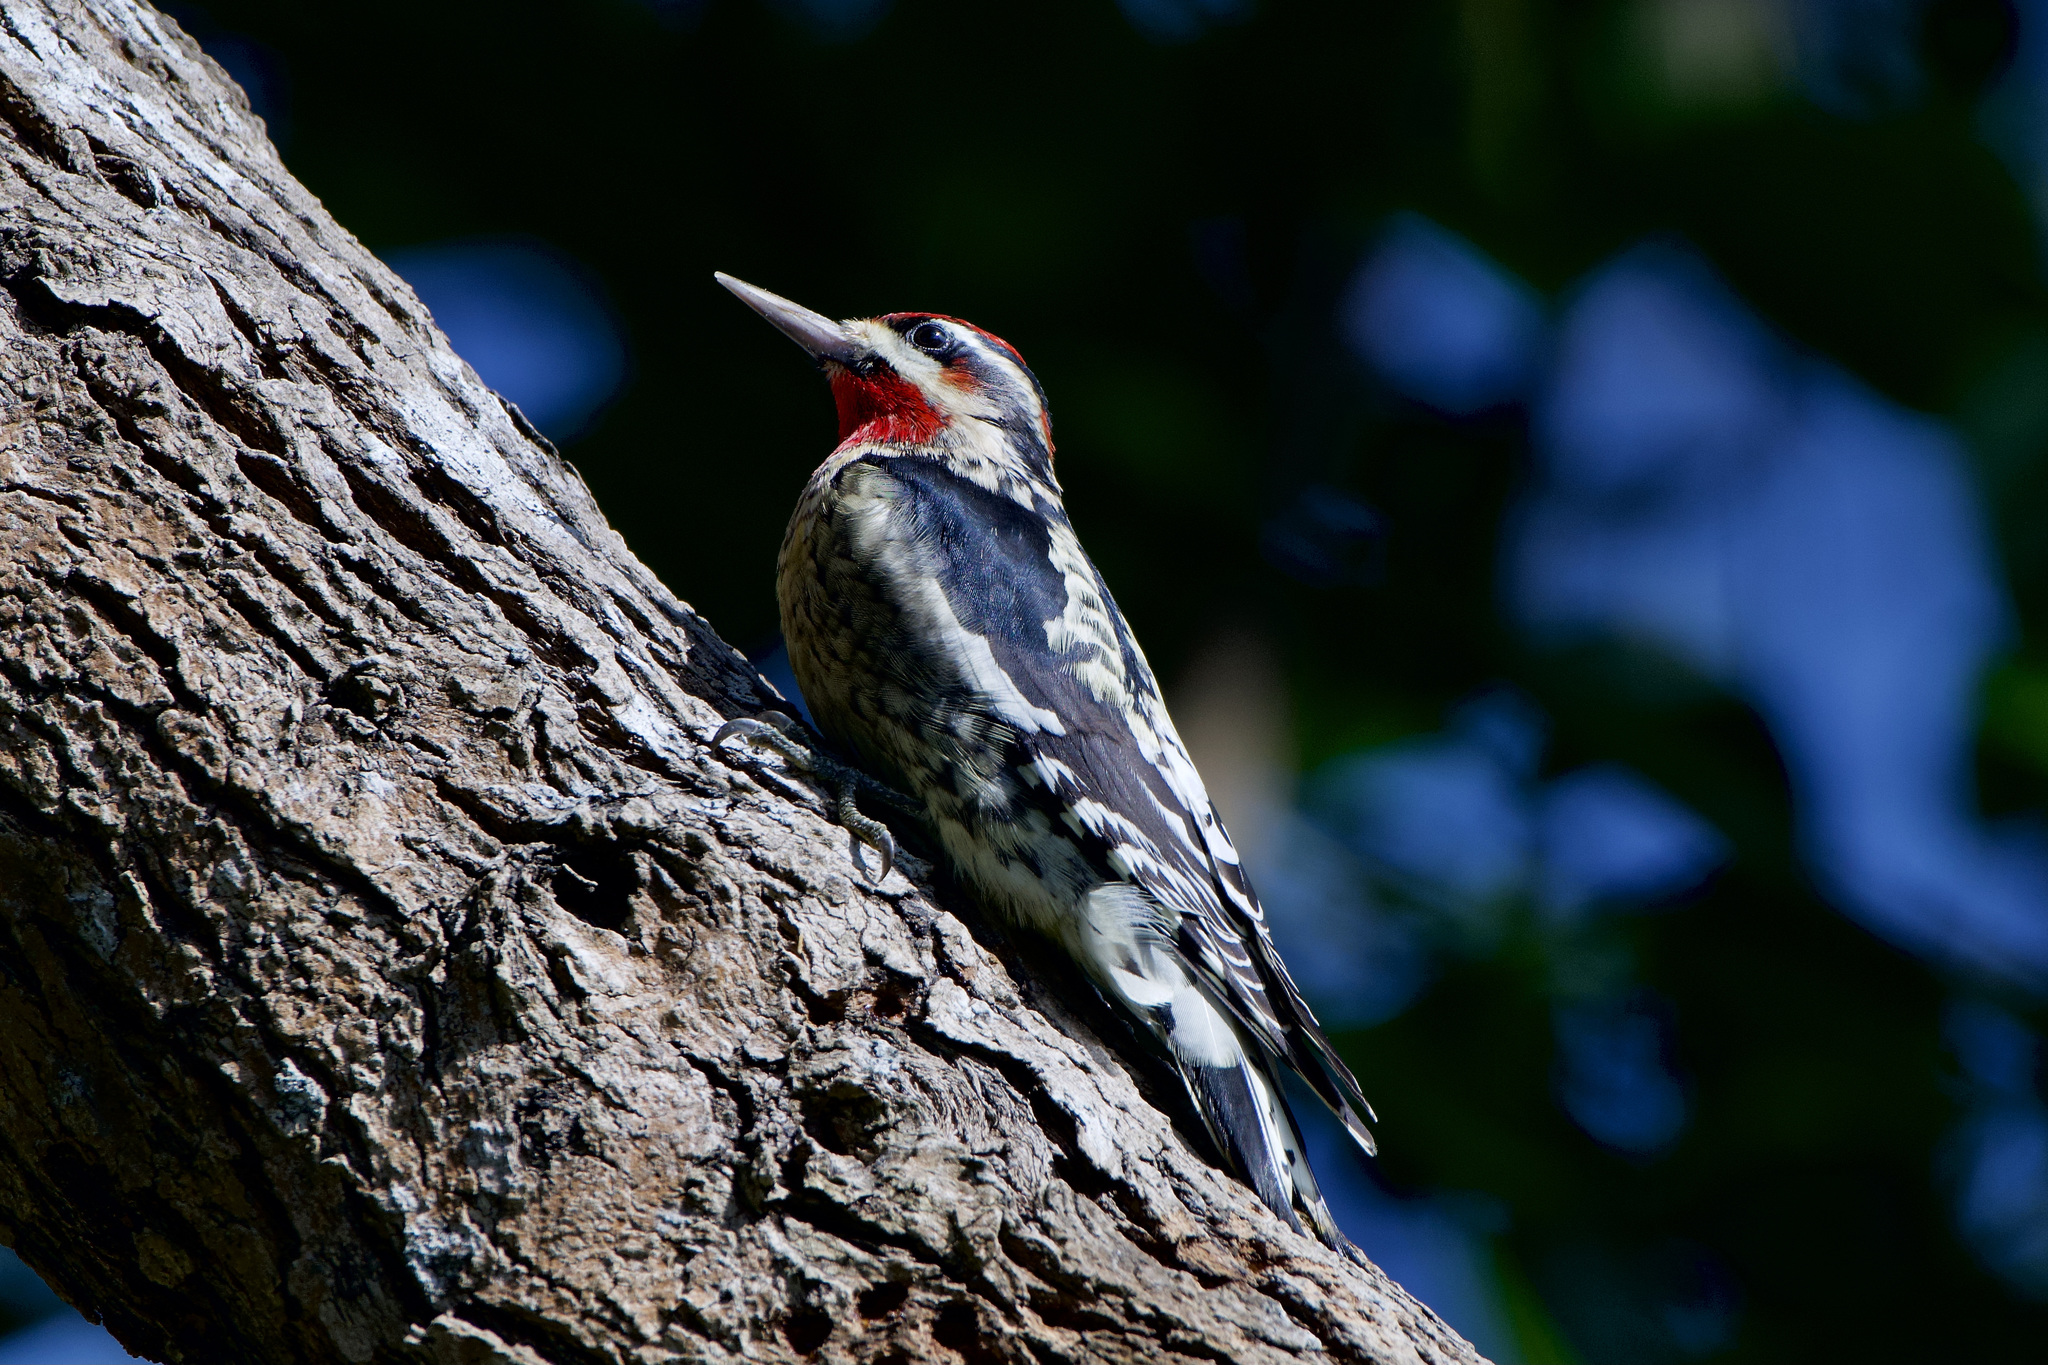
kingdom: Animalia
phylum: Chordata
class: Aves
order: Piciformes
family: Picidae
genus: Sphyrapicus
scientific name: Sphyrapicus nuchalis
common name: Red-naped sapsucker
